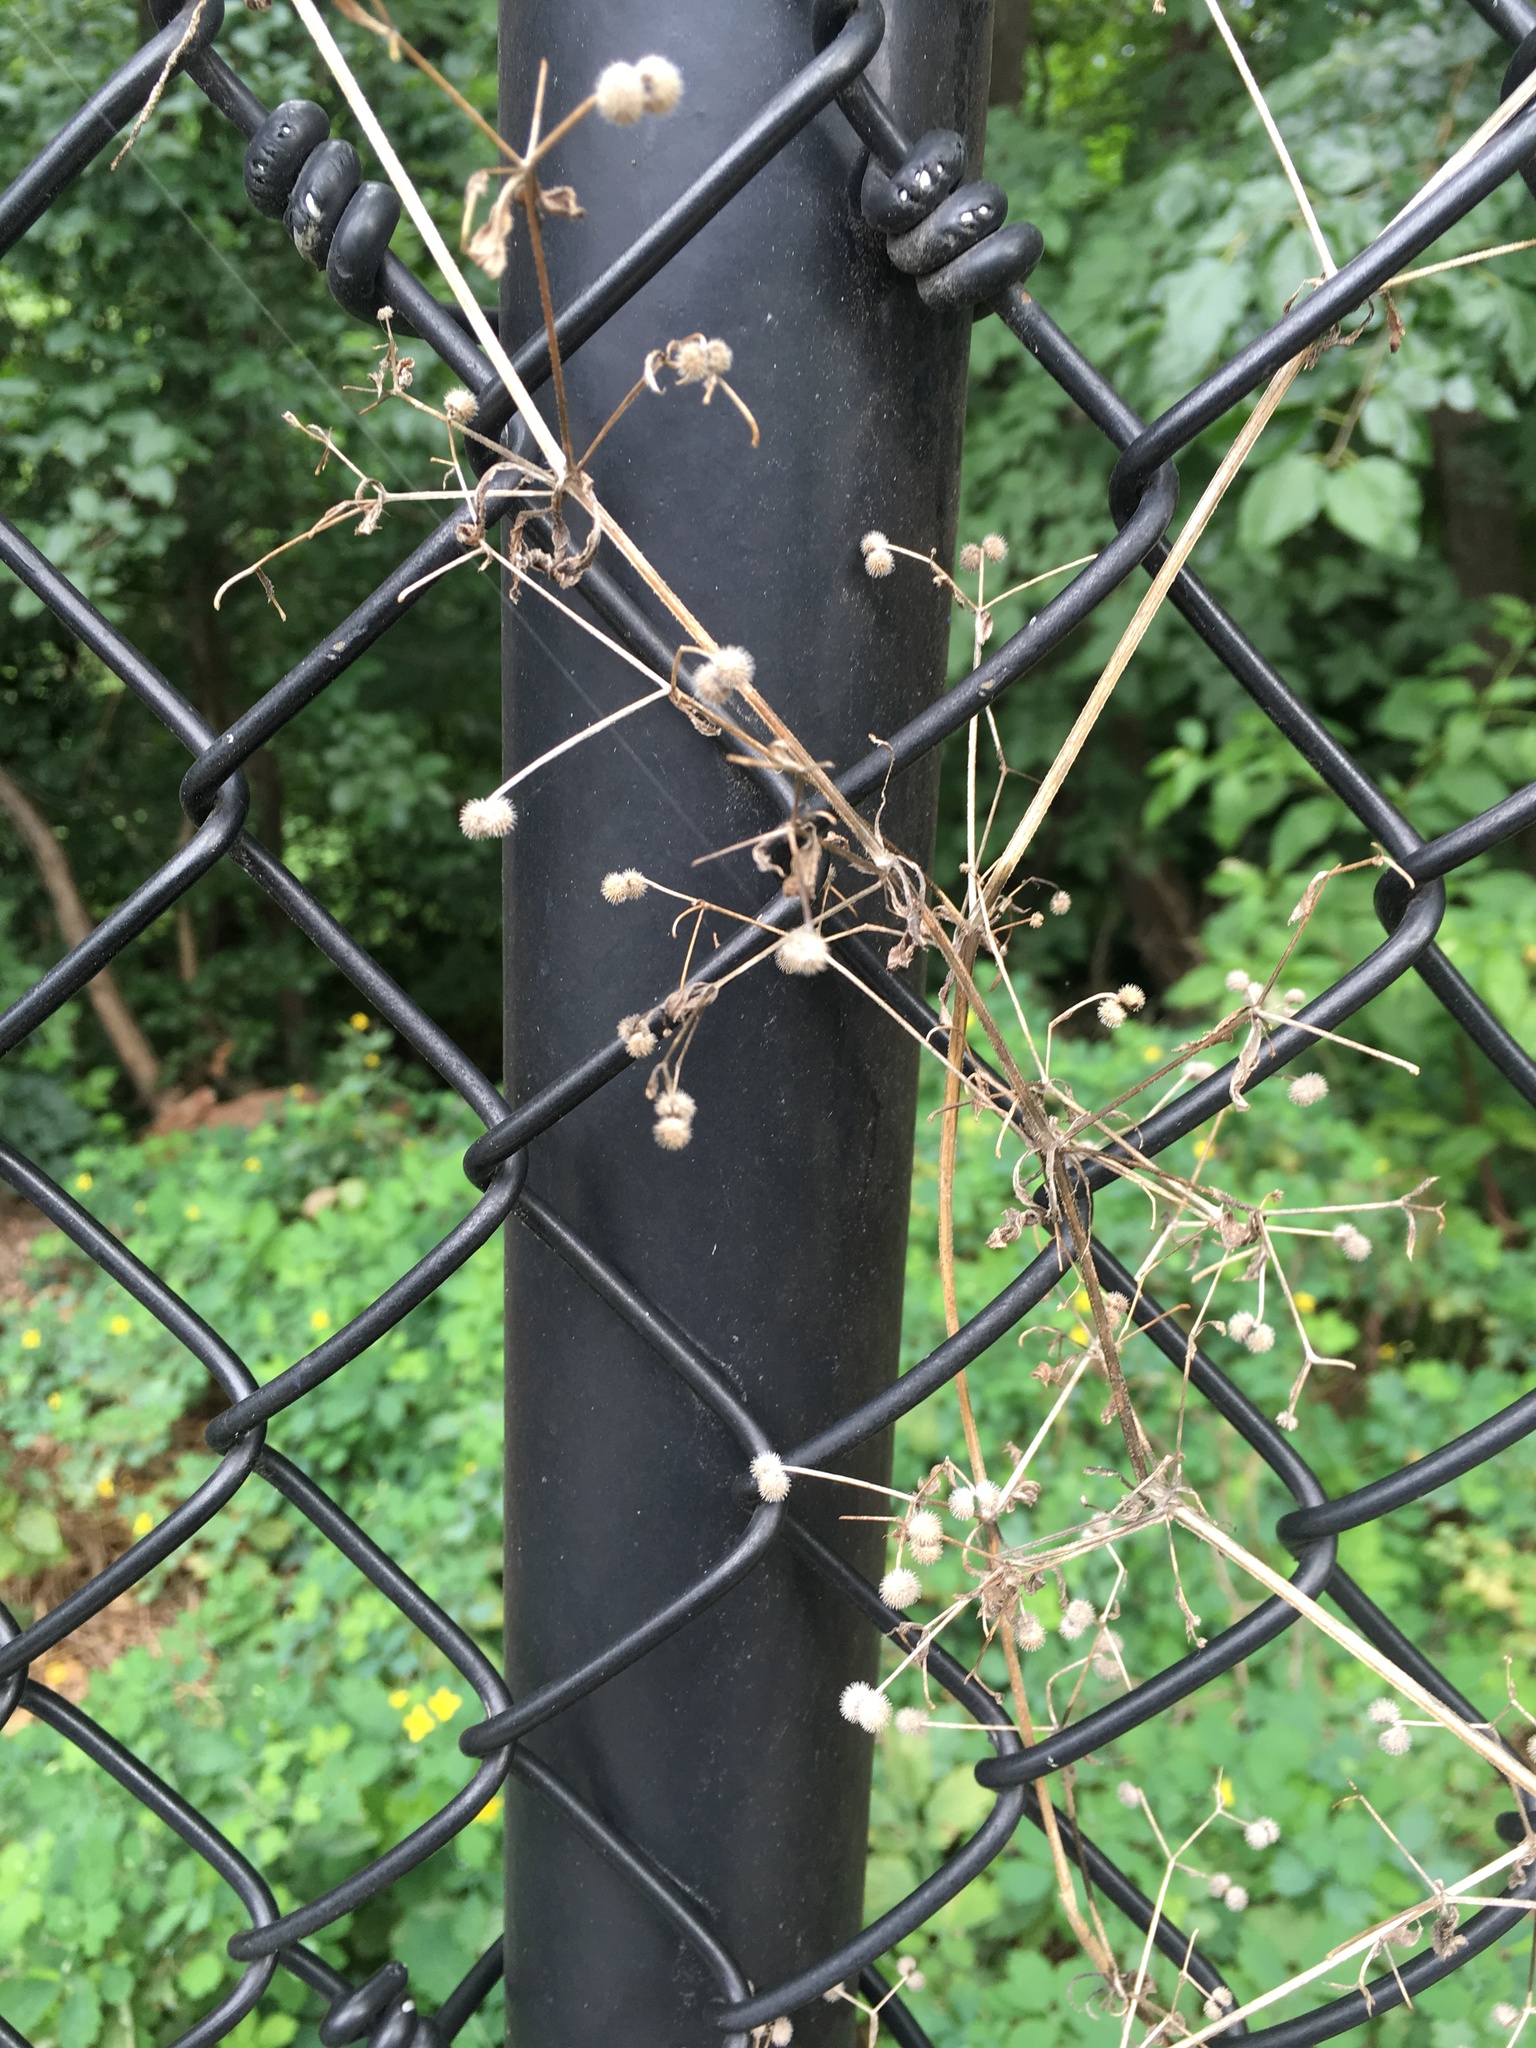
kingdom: Plantae
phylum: Tracheophyta
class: Magnoliopsida
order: Gentianales
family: Rubiaceae
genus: Galium
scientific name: Galium aparine
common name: Cleavers
